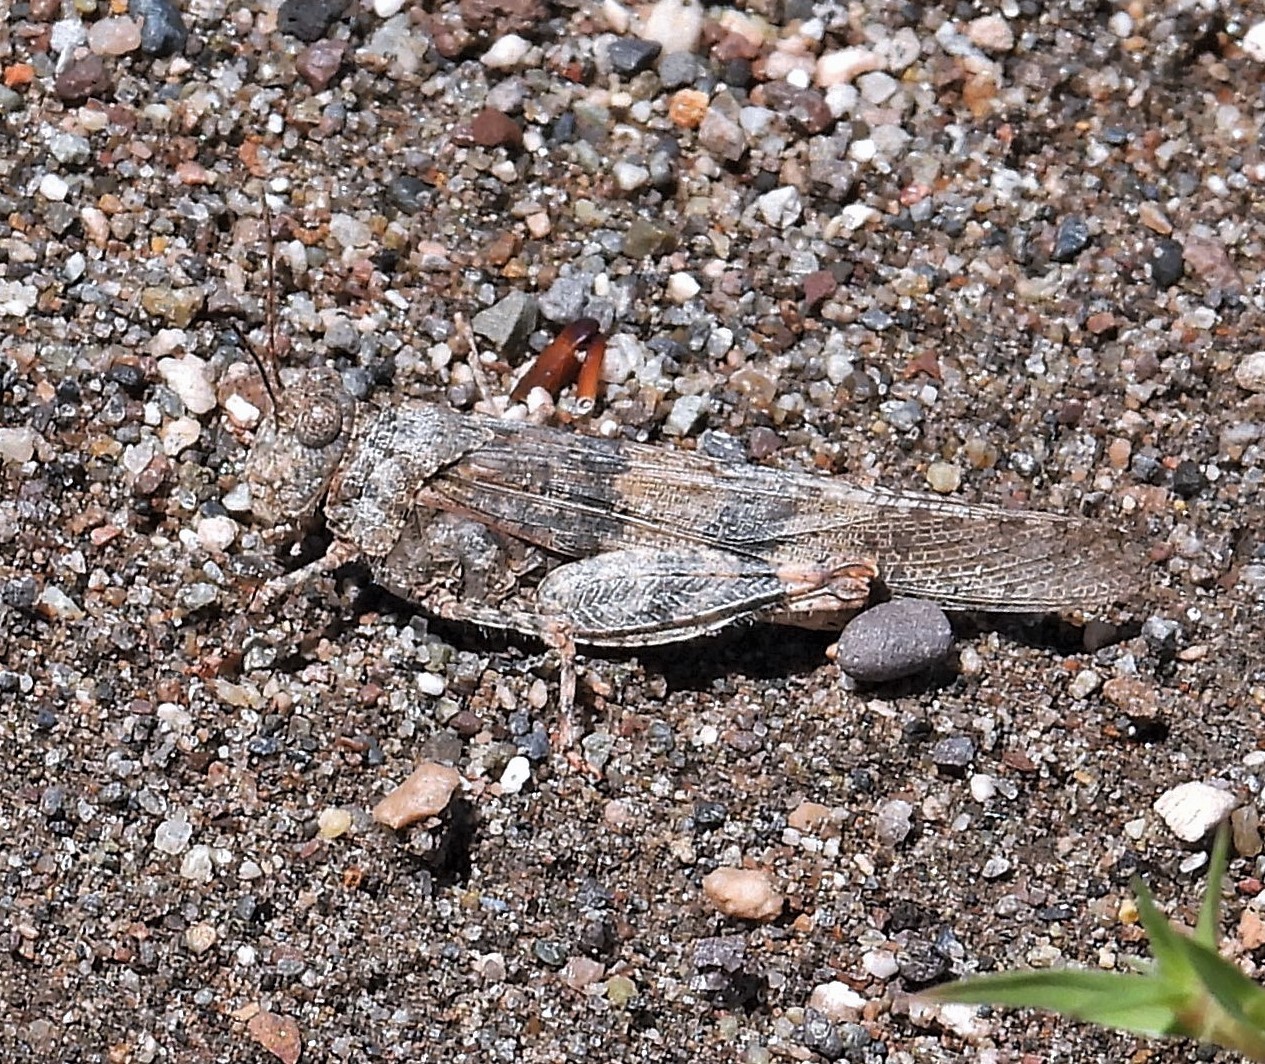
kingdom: Animalia
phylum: Arthropoda
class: Insecta
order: Orthoptera
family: Acrididae
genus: Trimerotropis
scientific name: Trimerotropis pallidipennis
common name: Pallid-winged grasshopper
